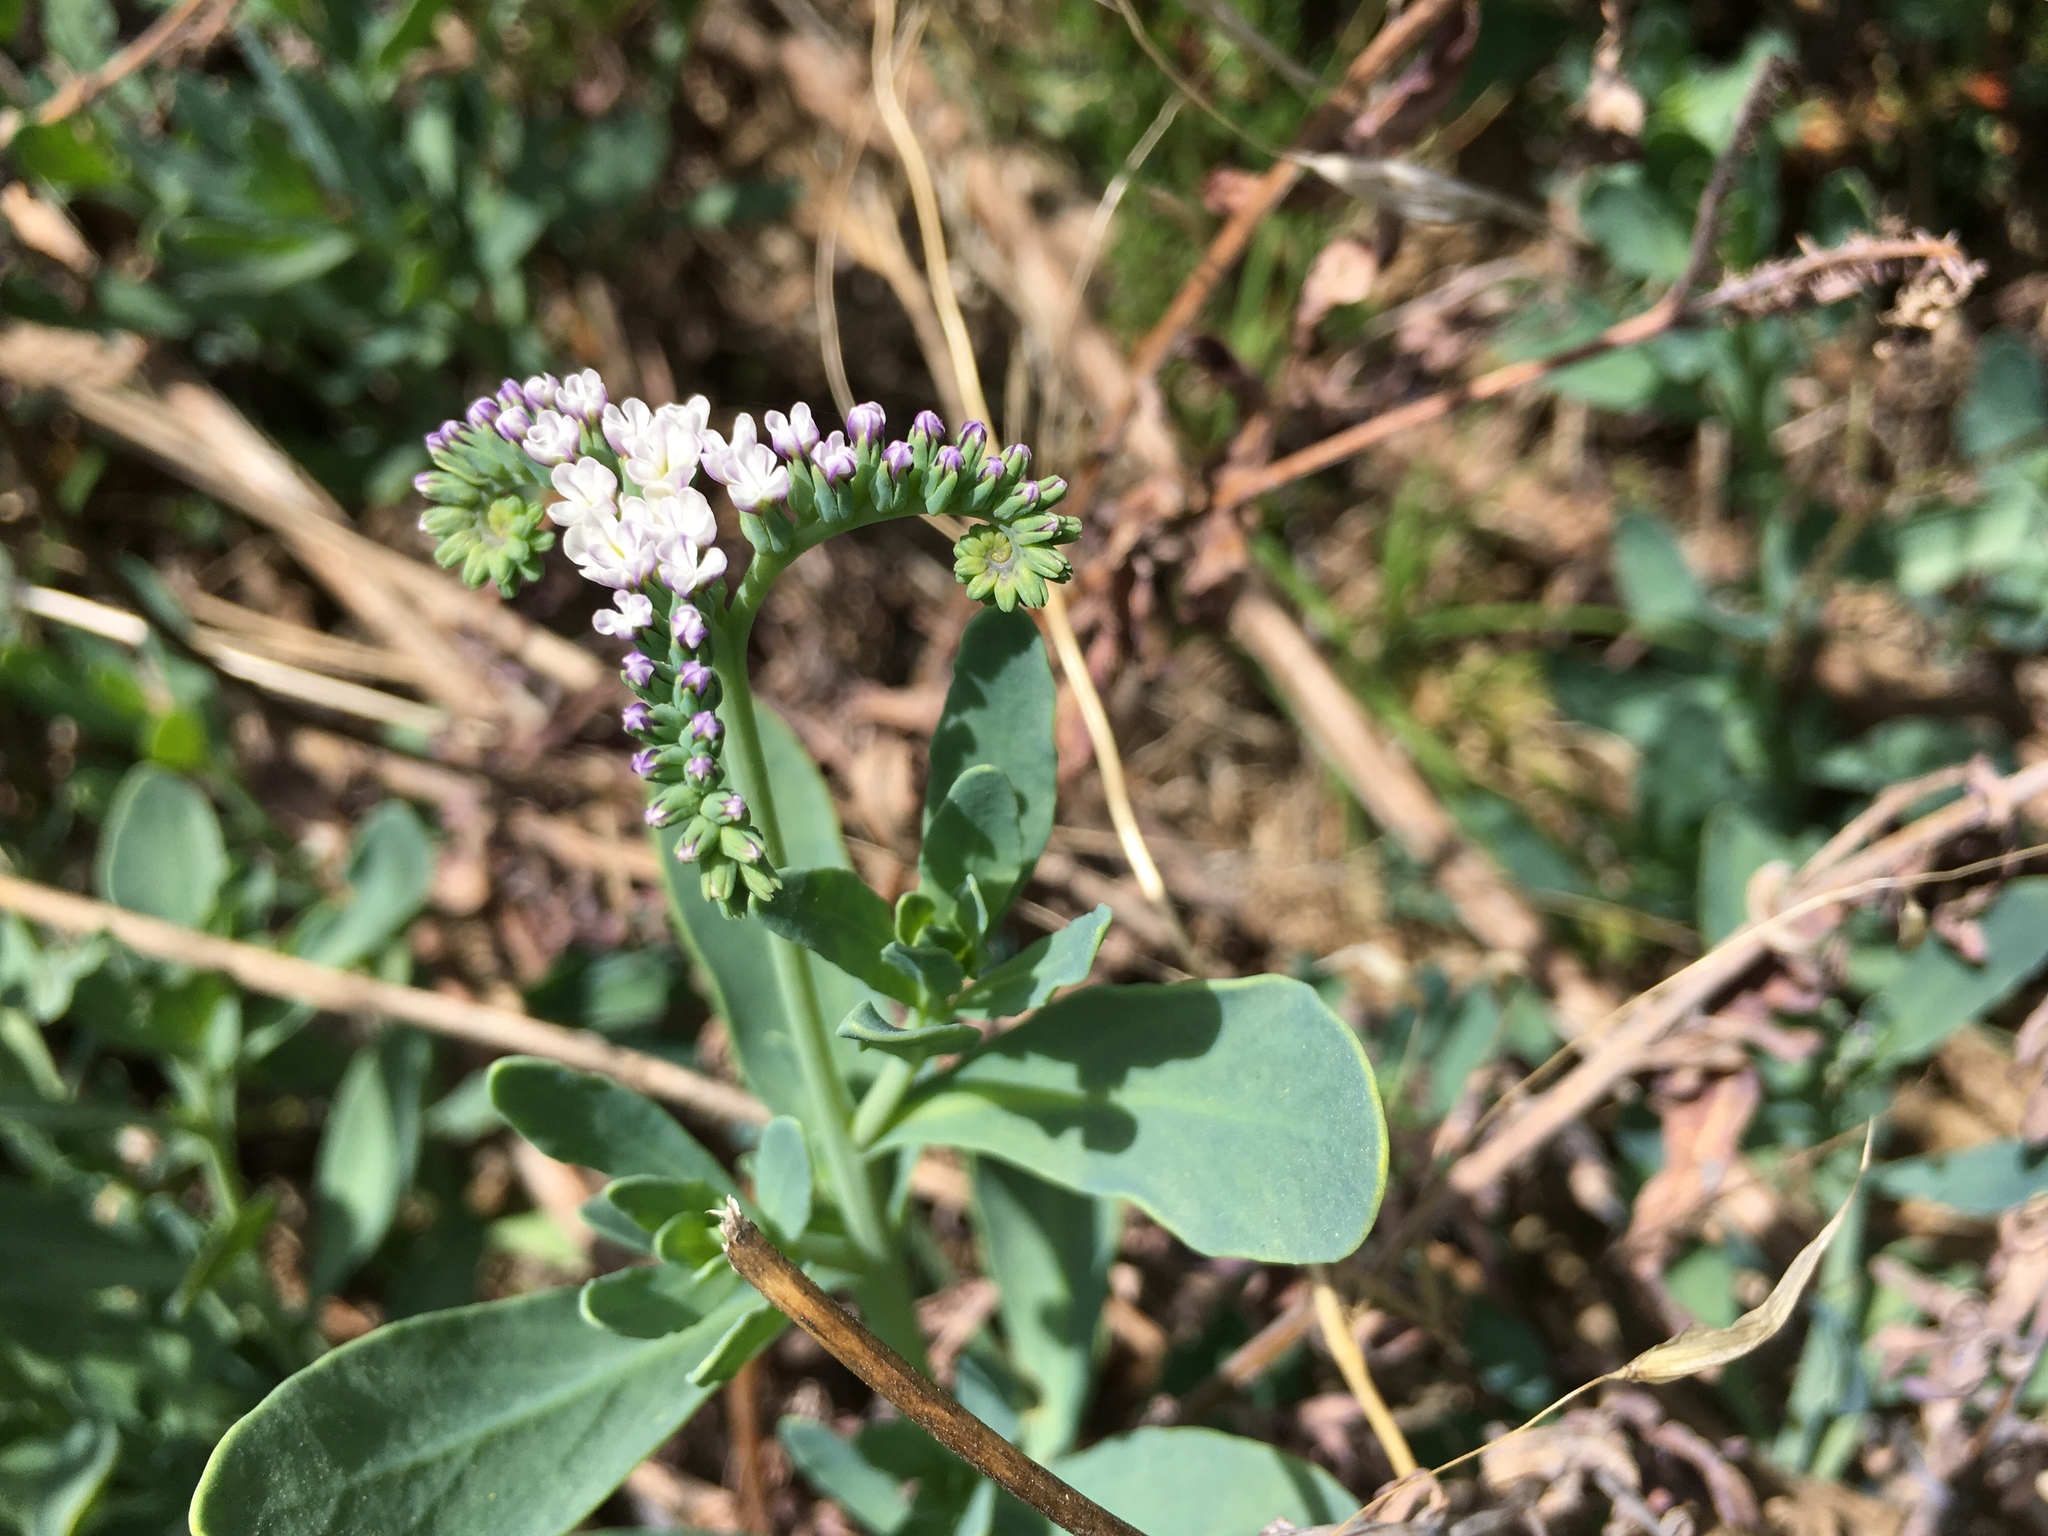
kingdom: Plantae
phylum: Tracheophyta
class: Magnoliopsida
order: Boraginales
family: Heliotropiaceae
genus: Heliotropium
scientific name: Heliotropium curassavicum
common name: Seaside heliotrope
